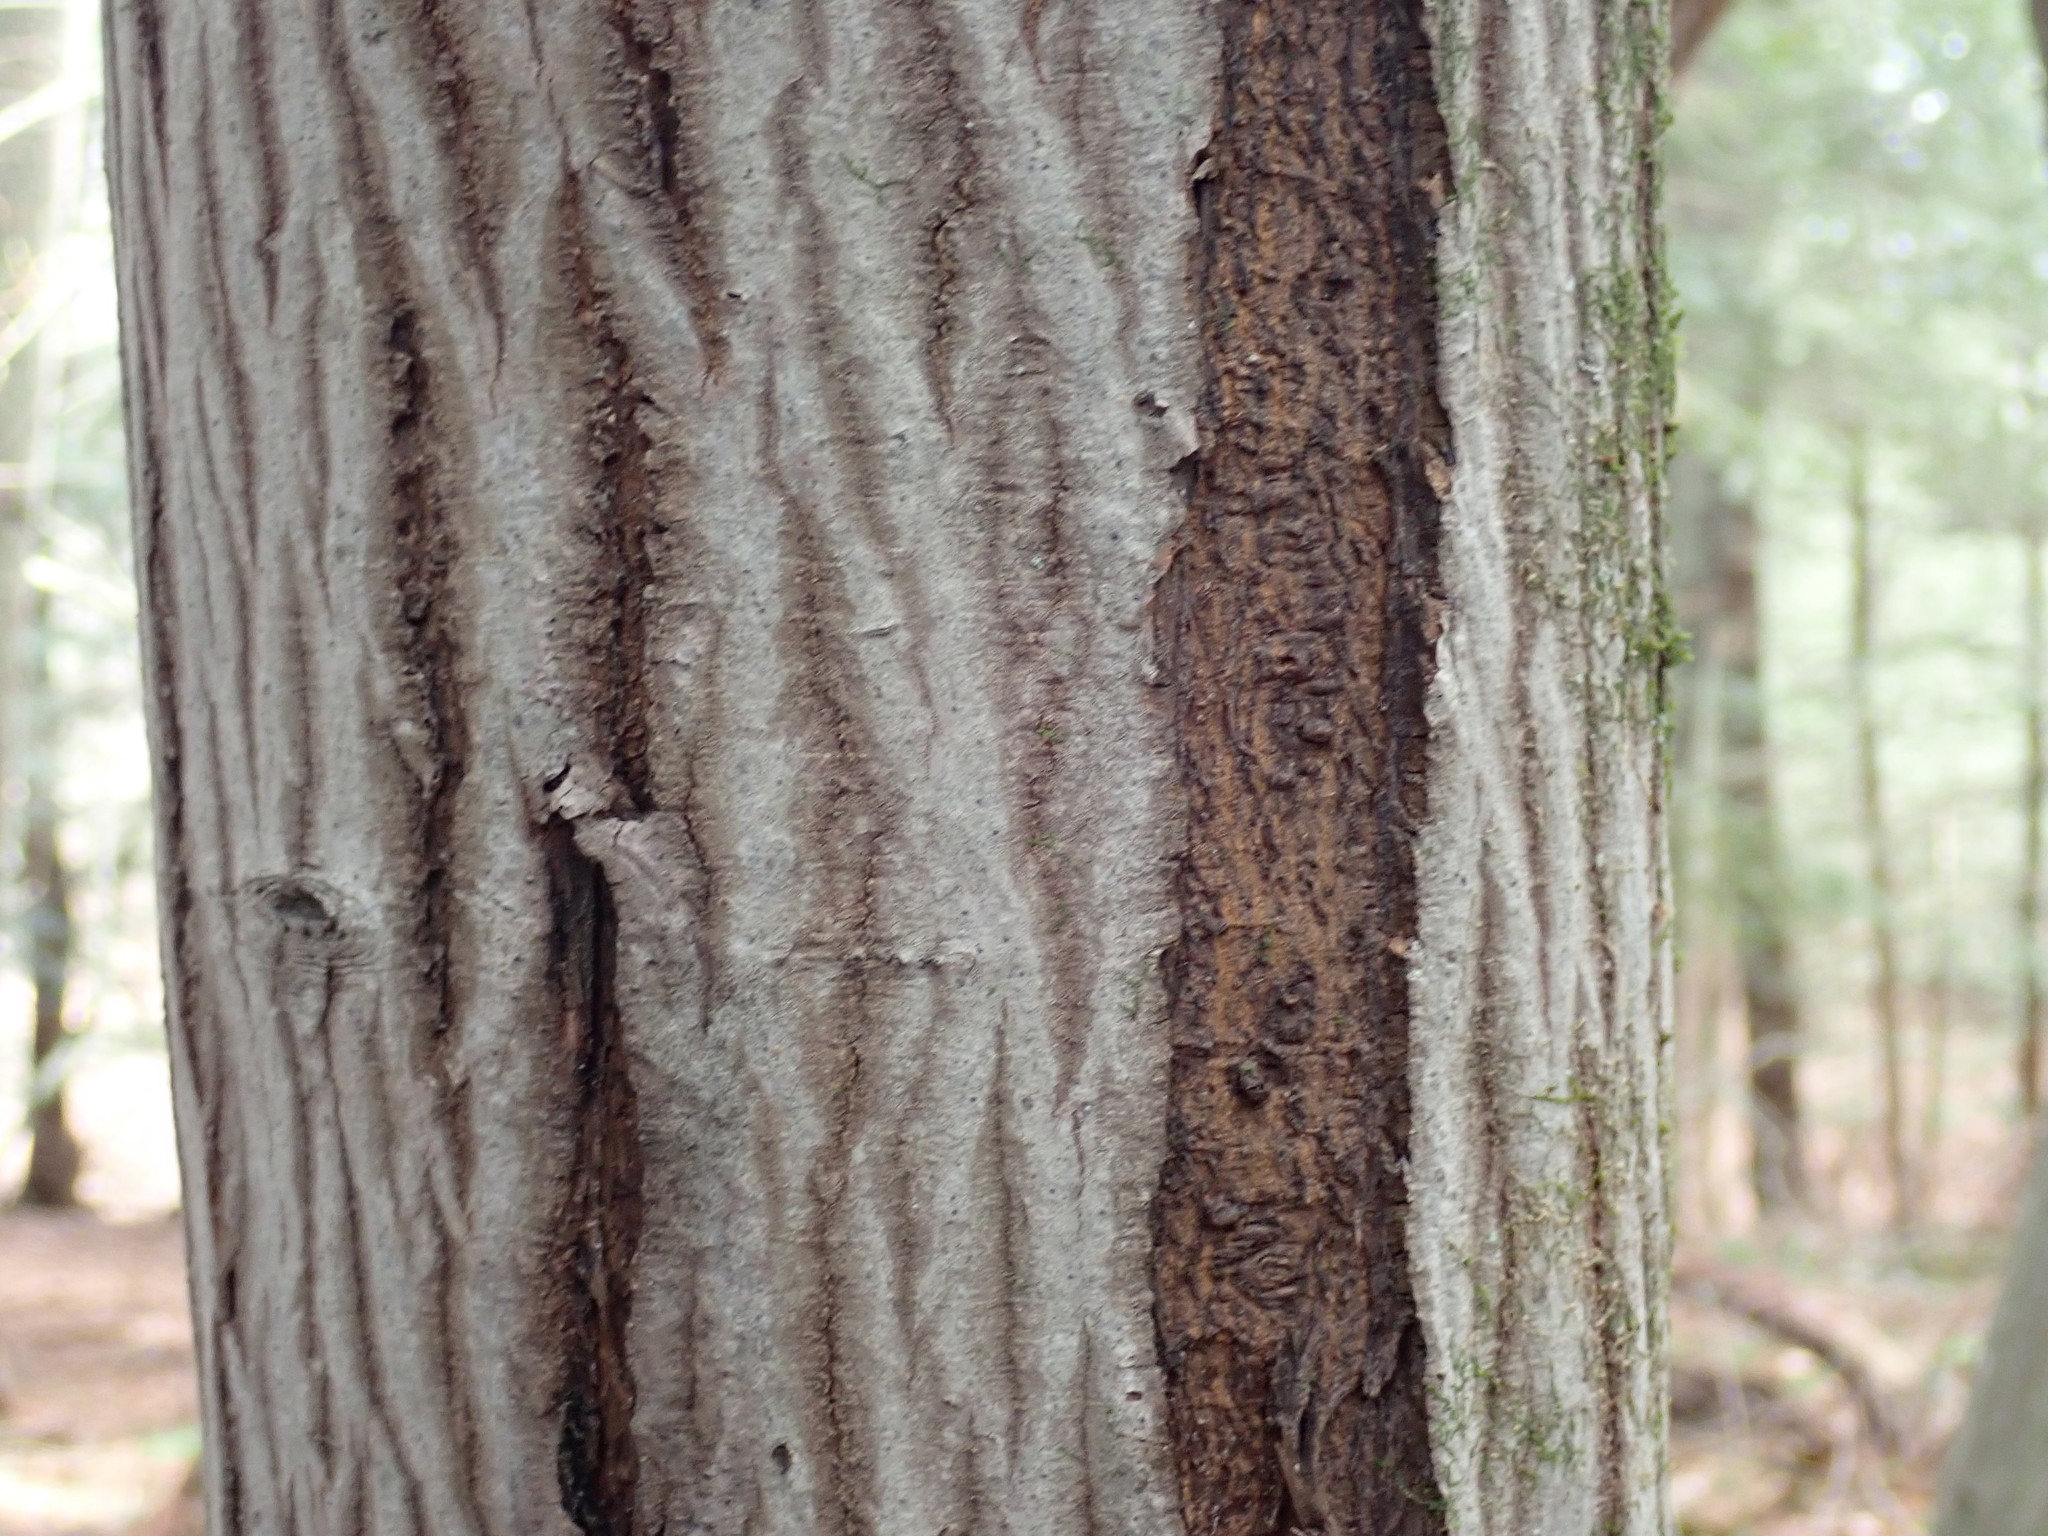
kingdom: Plantae
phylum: Tracheophyta
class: Magnoliopsida
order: Sapindales
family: Sapindaceae
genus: Acer
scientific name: Acer pensylvanicum
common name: Moosewood
